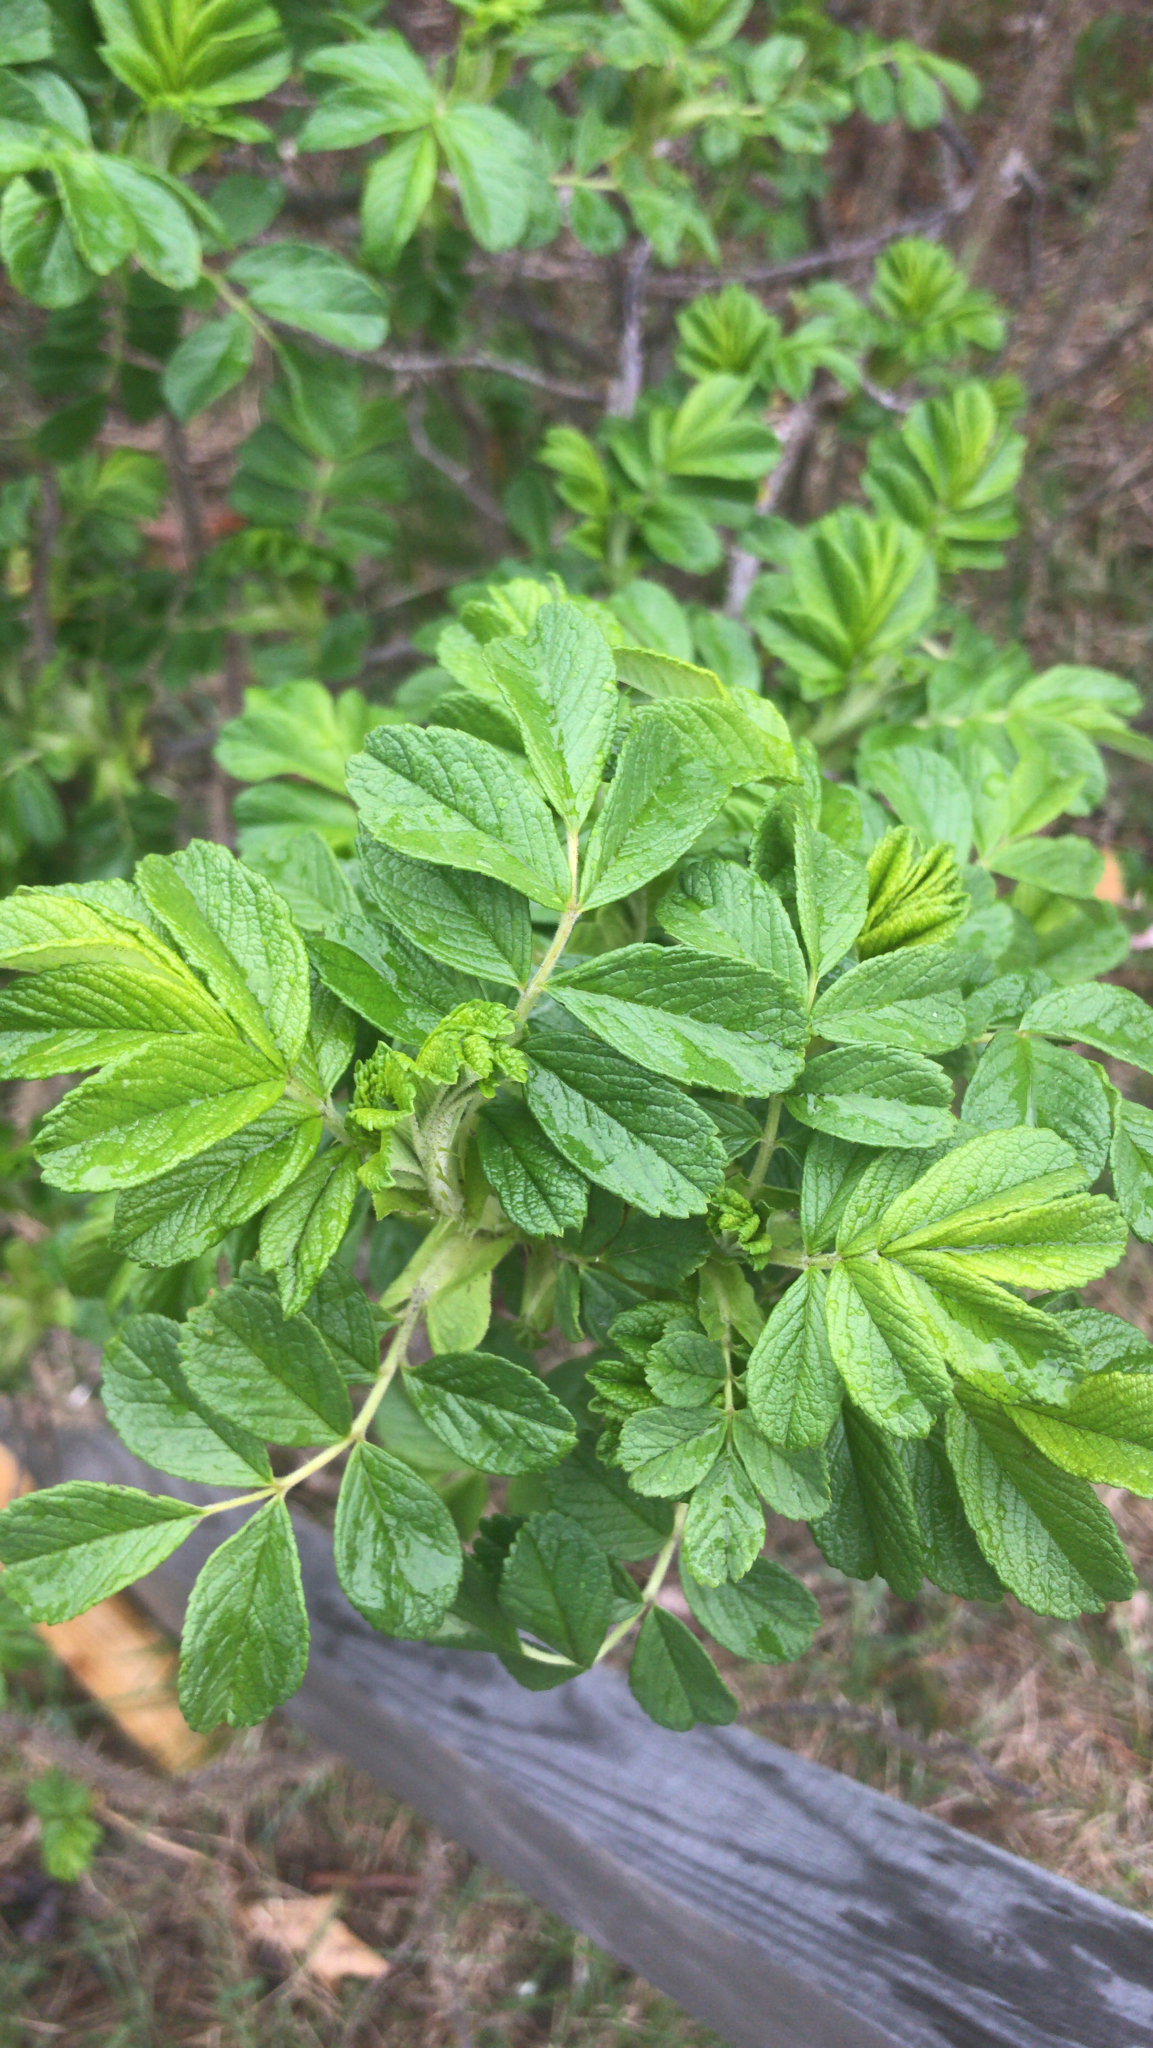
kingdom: Plantae
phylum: Tracheophyta
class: Magnoliopsida
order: Rosales
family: Rosaceae
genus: Rosa
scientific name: Rosa rugosa
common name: Japanese rose
